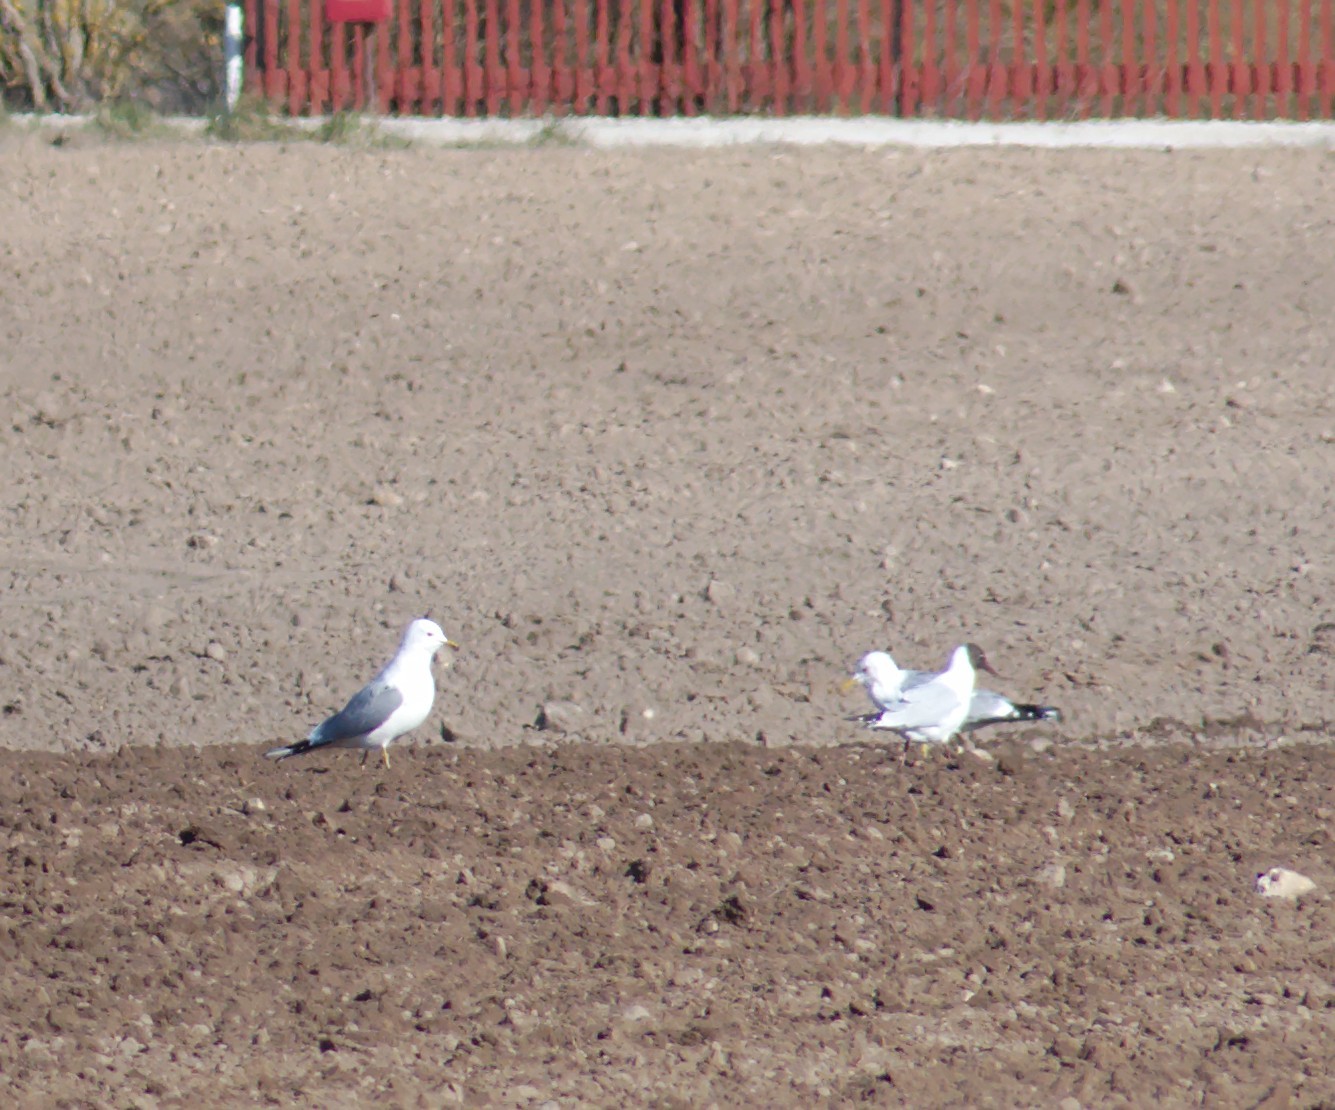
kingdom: Animalia
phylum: Chordata
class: Aves
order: Charadriiformes
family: Laridae
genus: Larus
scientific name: Larus canus
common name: Mew gull
